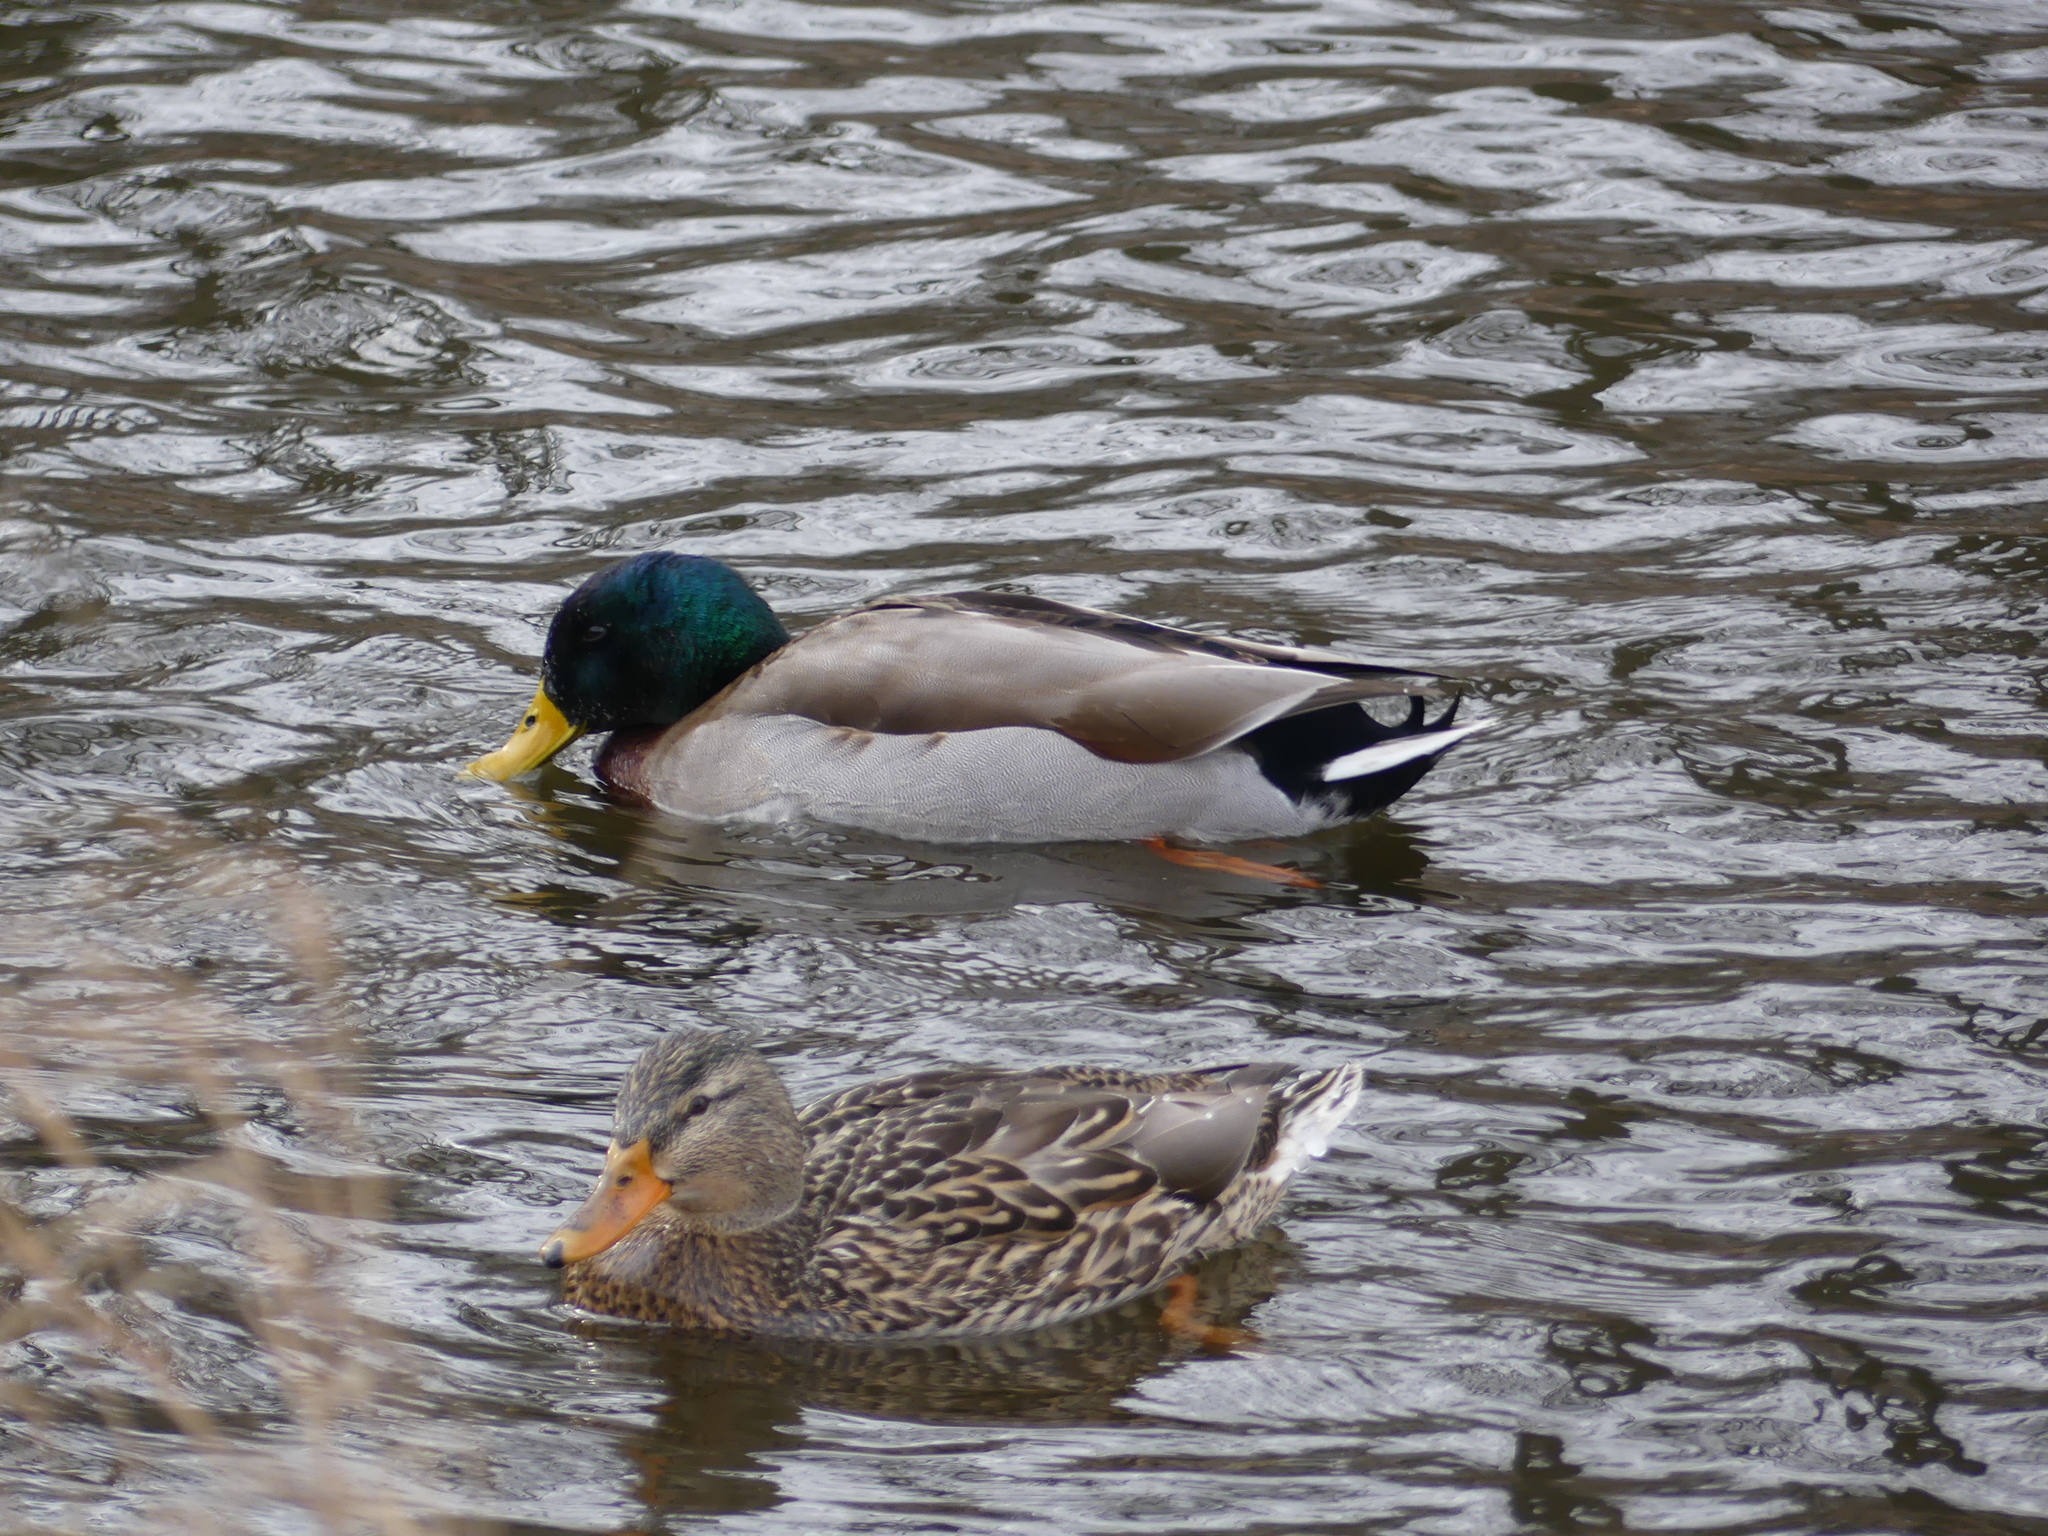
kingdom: Animalia
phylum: Chordata
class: Aves
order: Anseriformes
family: Anatidae
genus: Anas
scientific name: Anas platyrhynchos
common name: Mallard
